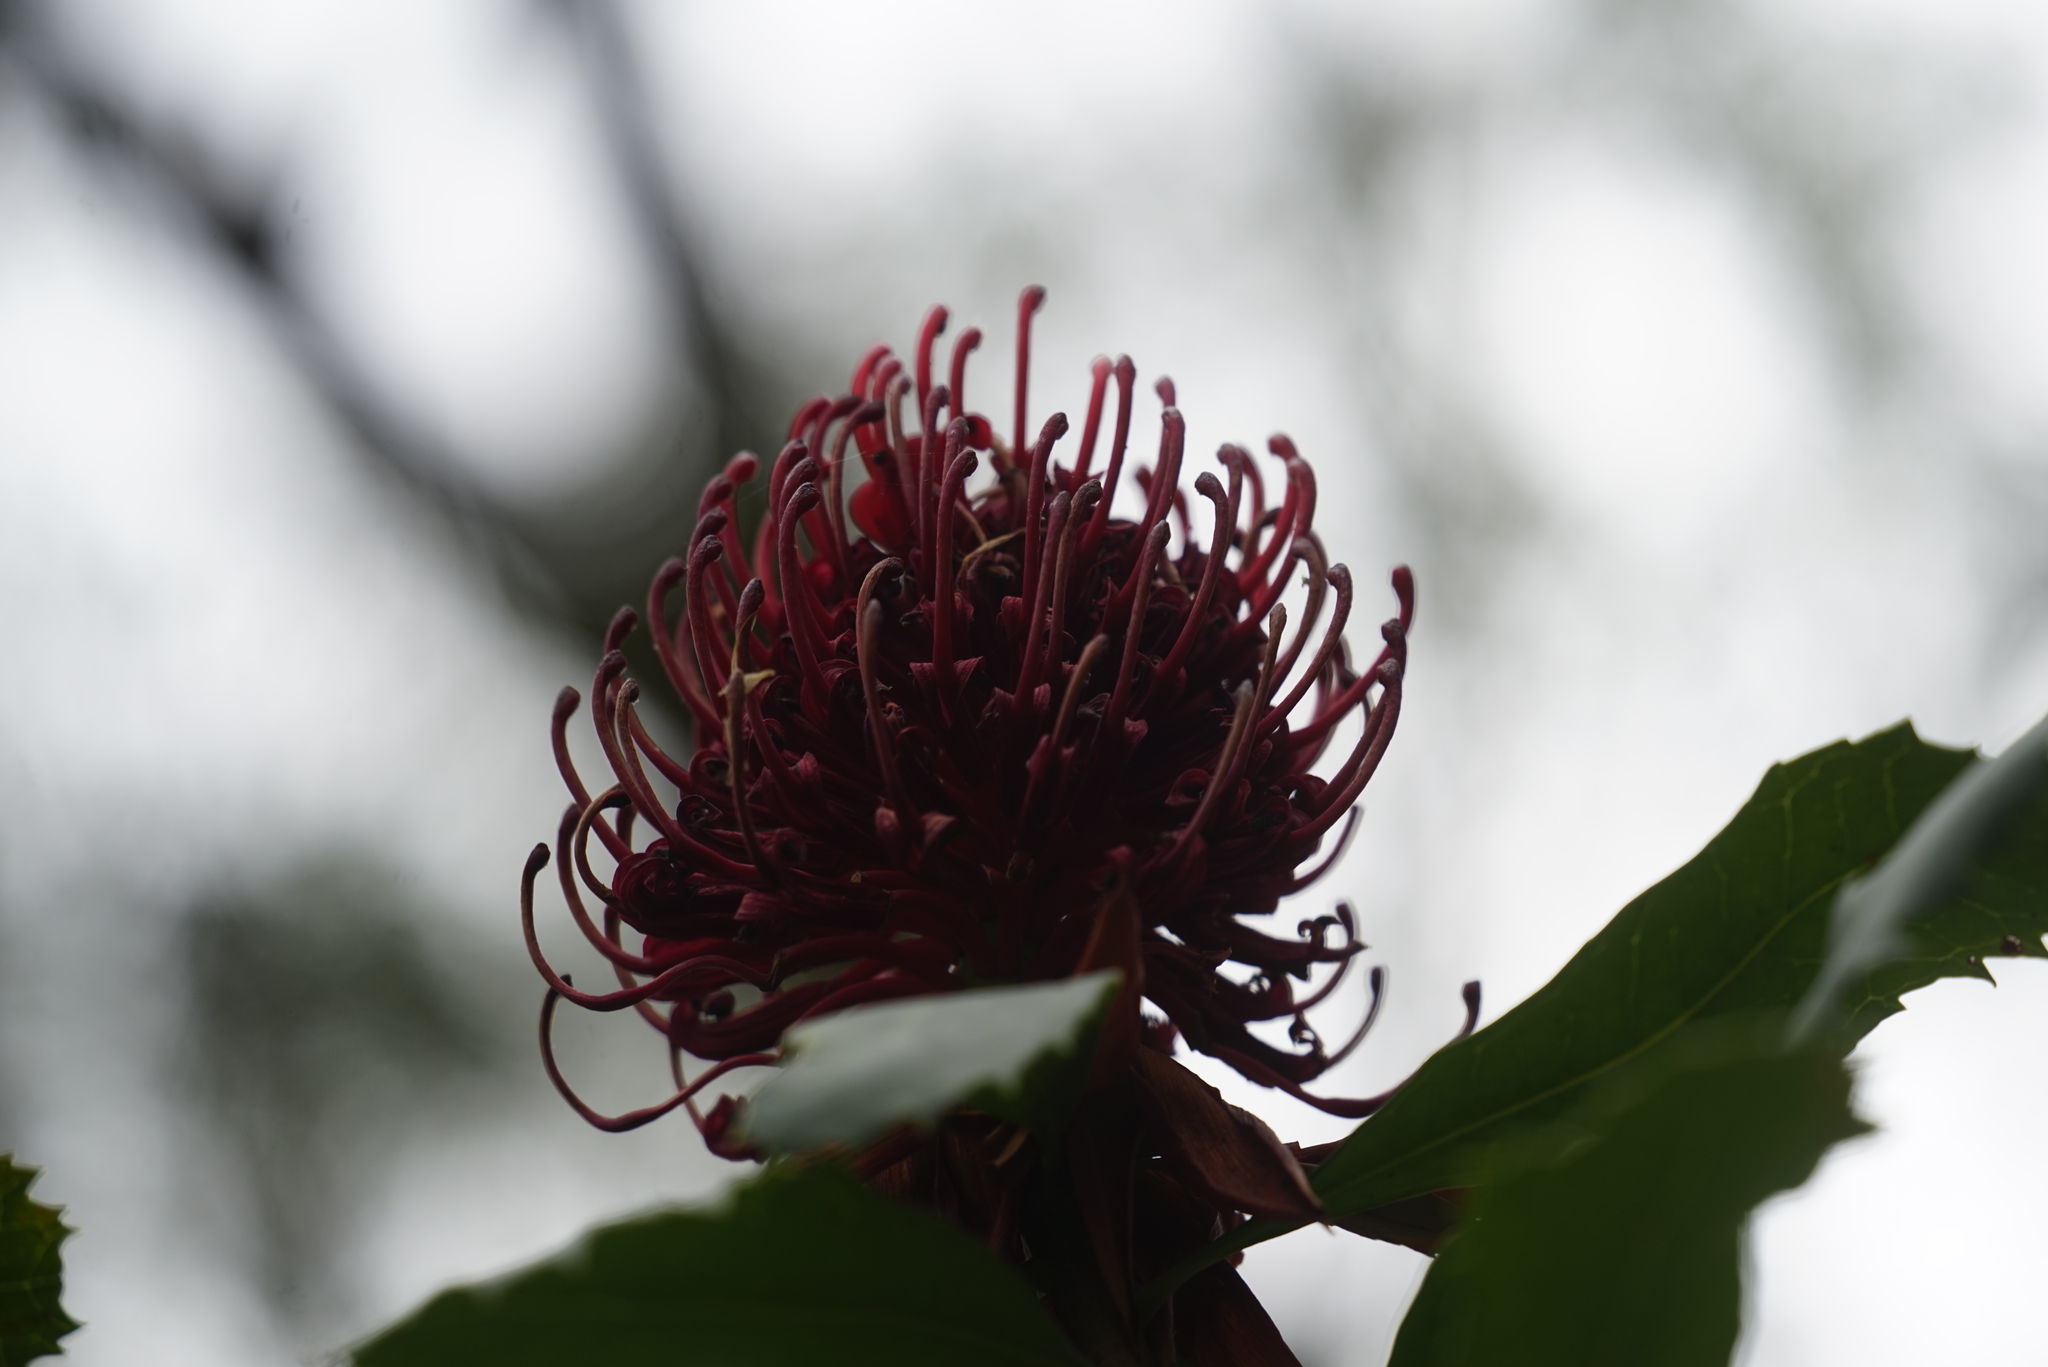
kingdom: Plantae
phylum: Tracheophyta
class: Magnoliopsida
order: Proteales
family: Proteaceae
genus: Telopea
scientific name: Telopea speciosissima
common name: New south wales waratah
